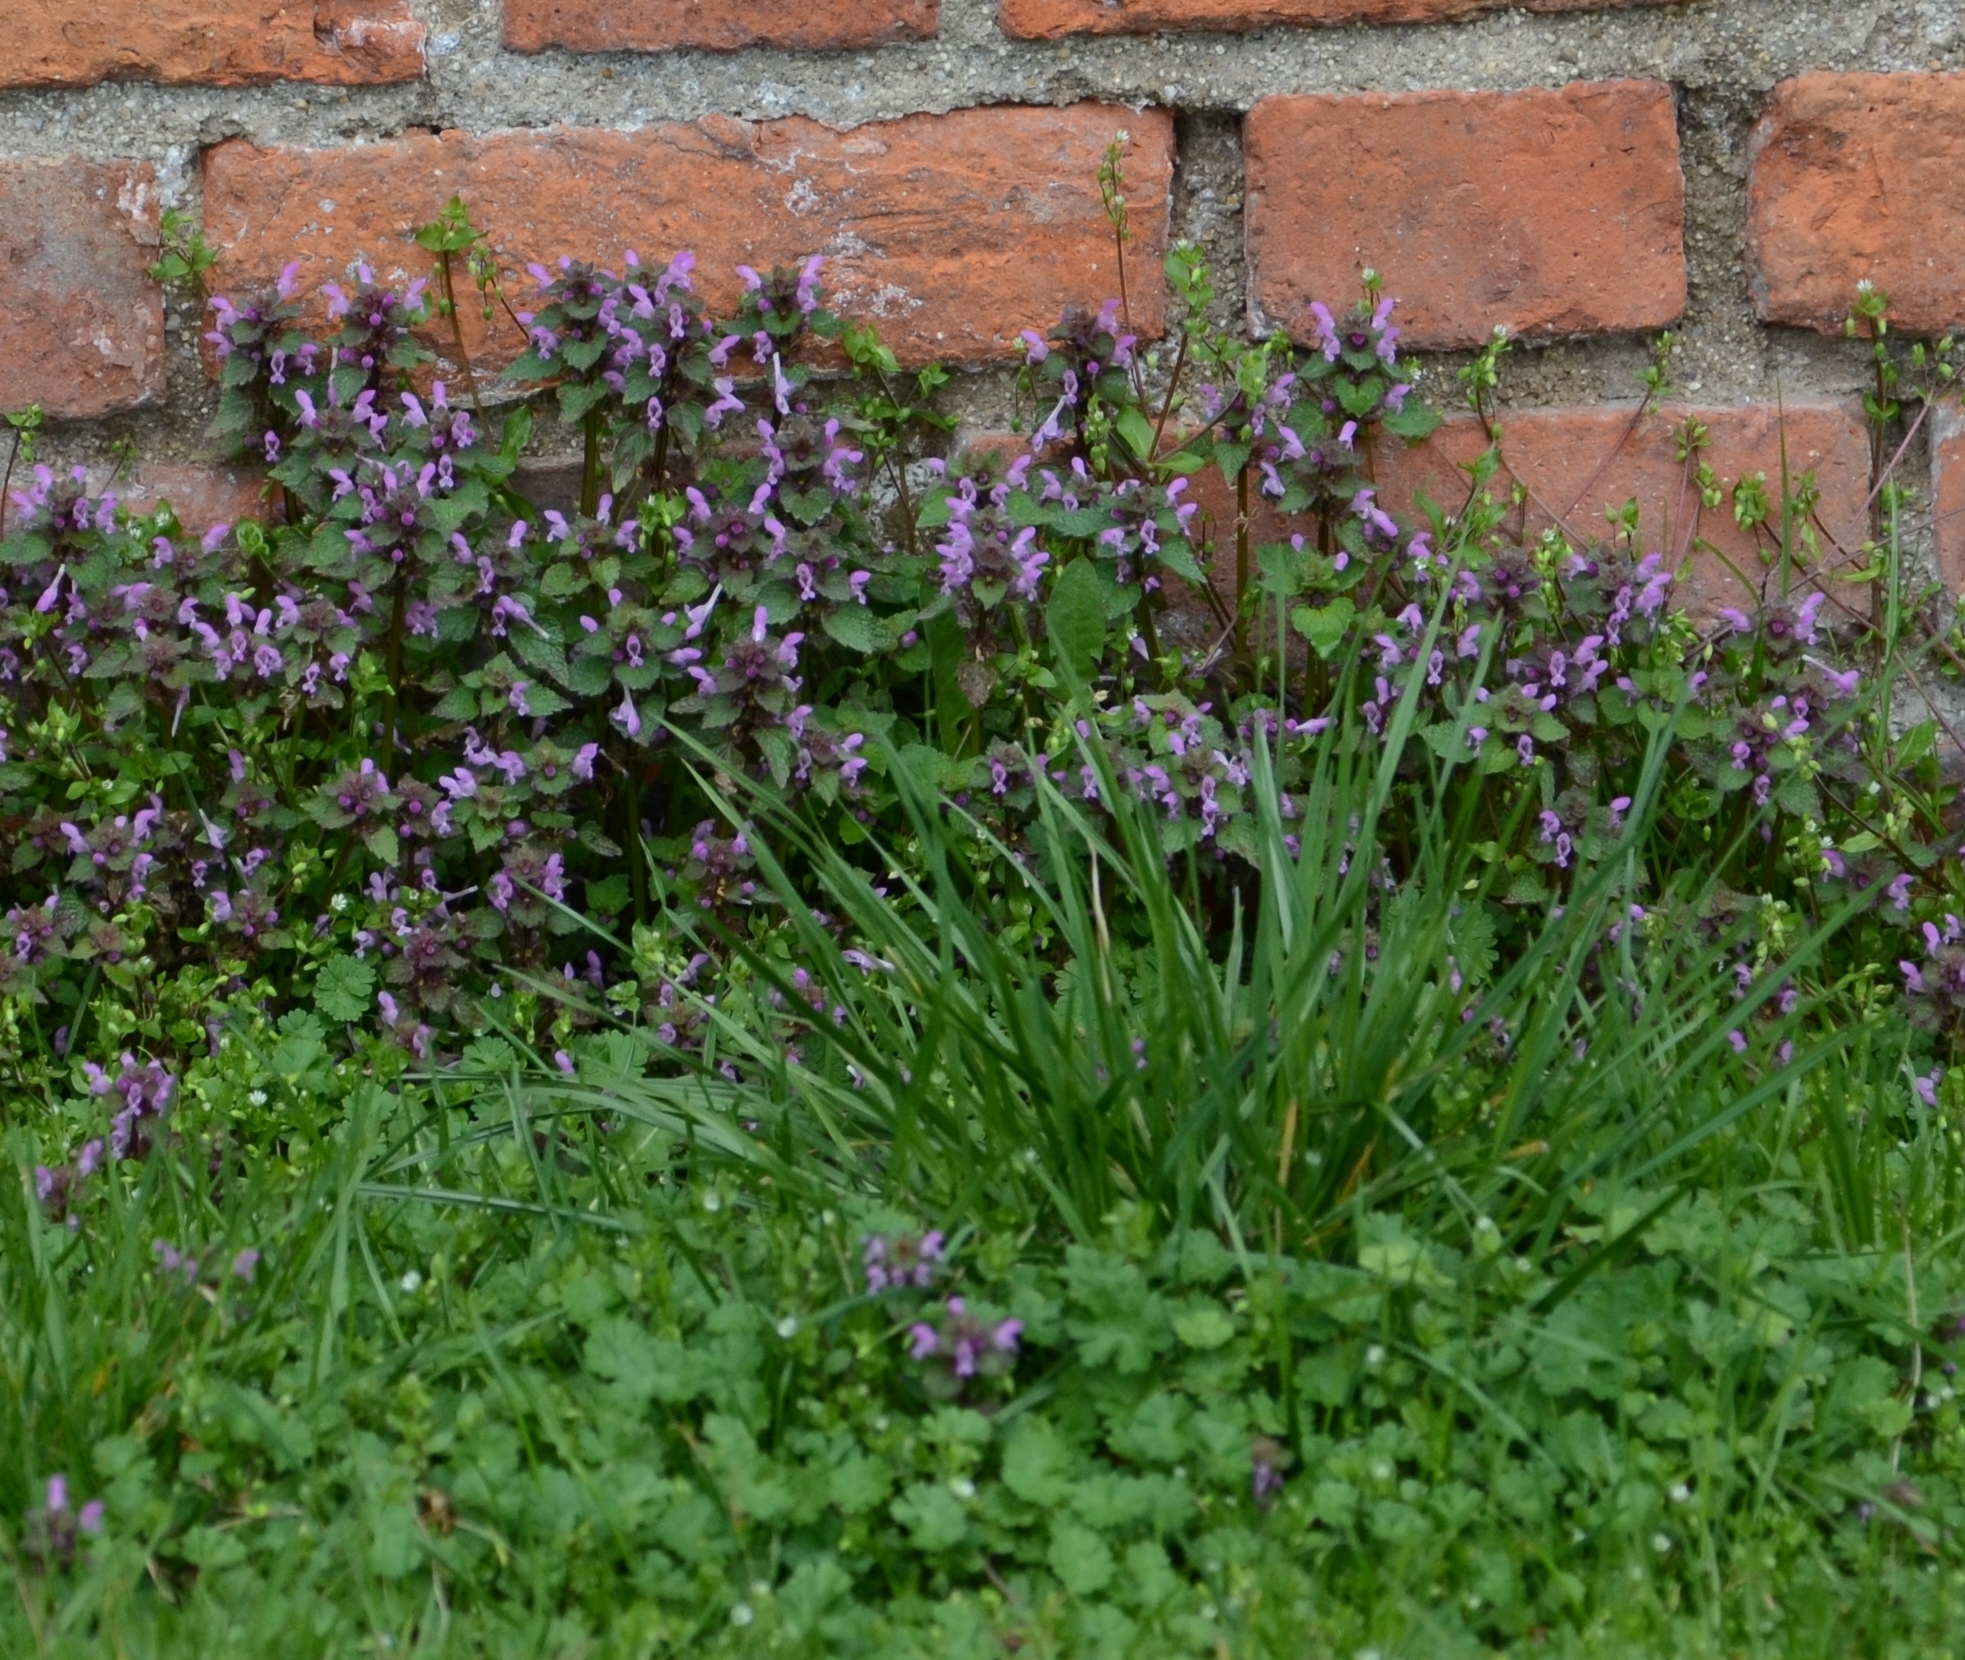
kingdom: Plantae
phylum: Tracheophyta
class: Magnoliopsida
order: Lamiales
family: Lamiaceae
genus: Lamium
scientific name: Lamium purpureum
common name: Red dead-nettle
